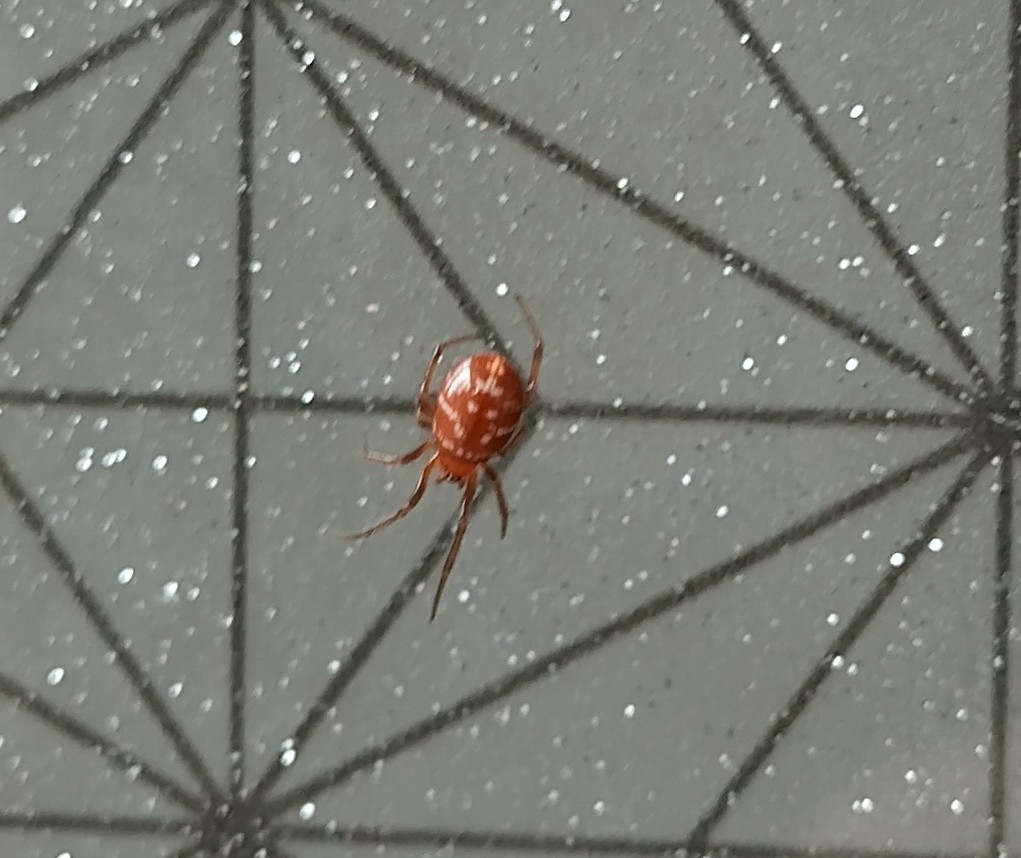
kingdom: Animalia
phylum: Arthropoda
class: Arachnida
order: Araneae
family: Theridiidae
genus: Steatoda
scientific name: Steatoda capensis
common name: Cobweb weaver
